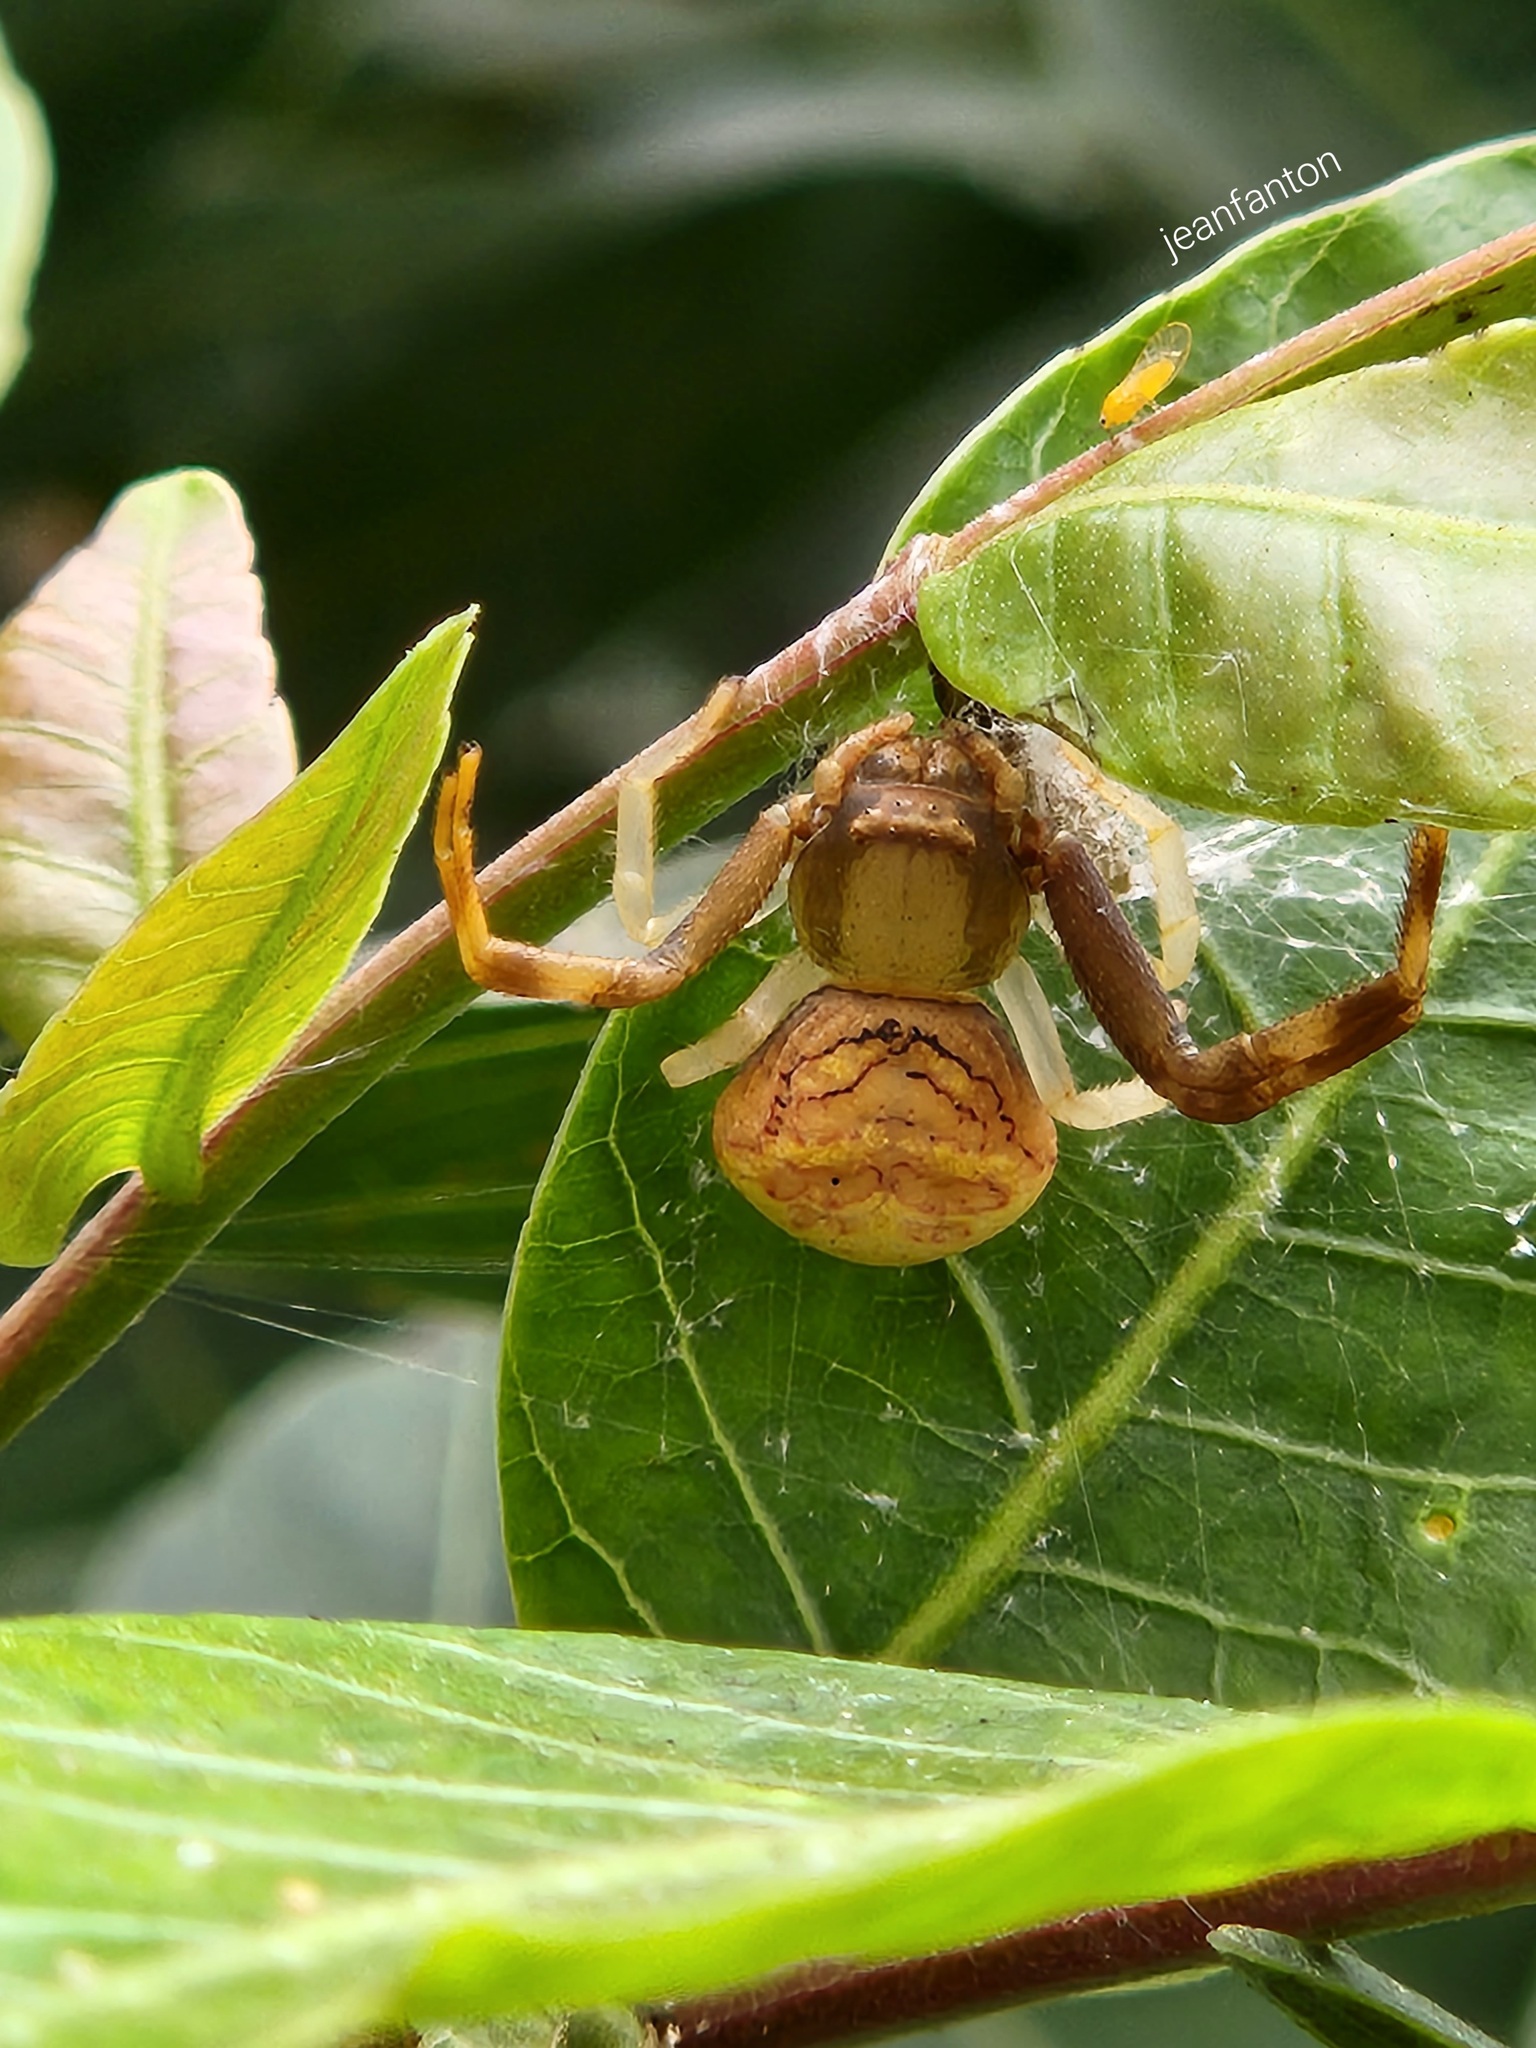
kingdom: Animalia
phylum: Arthropoda
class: Arachnida
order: Araneae
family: Thomisidae
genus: Runcinioides
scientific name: Runcinioides litteratus
